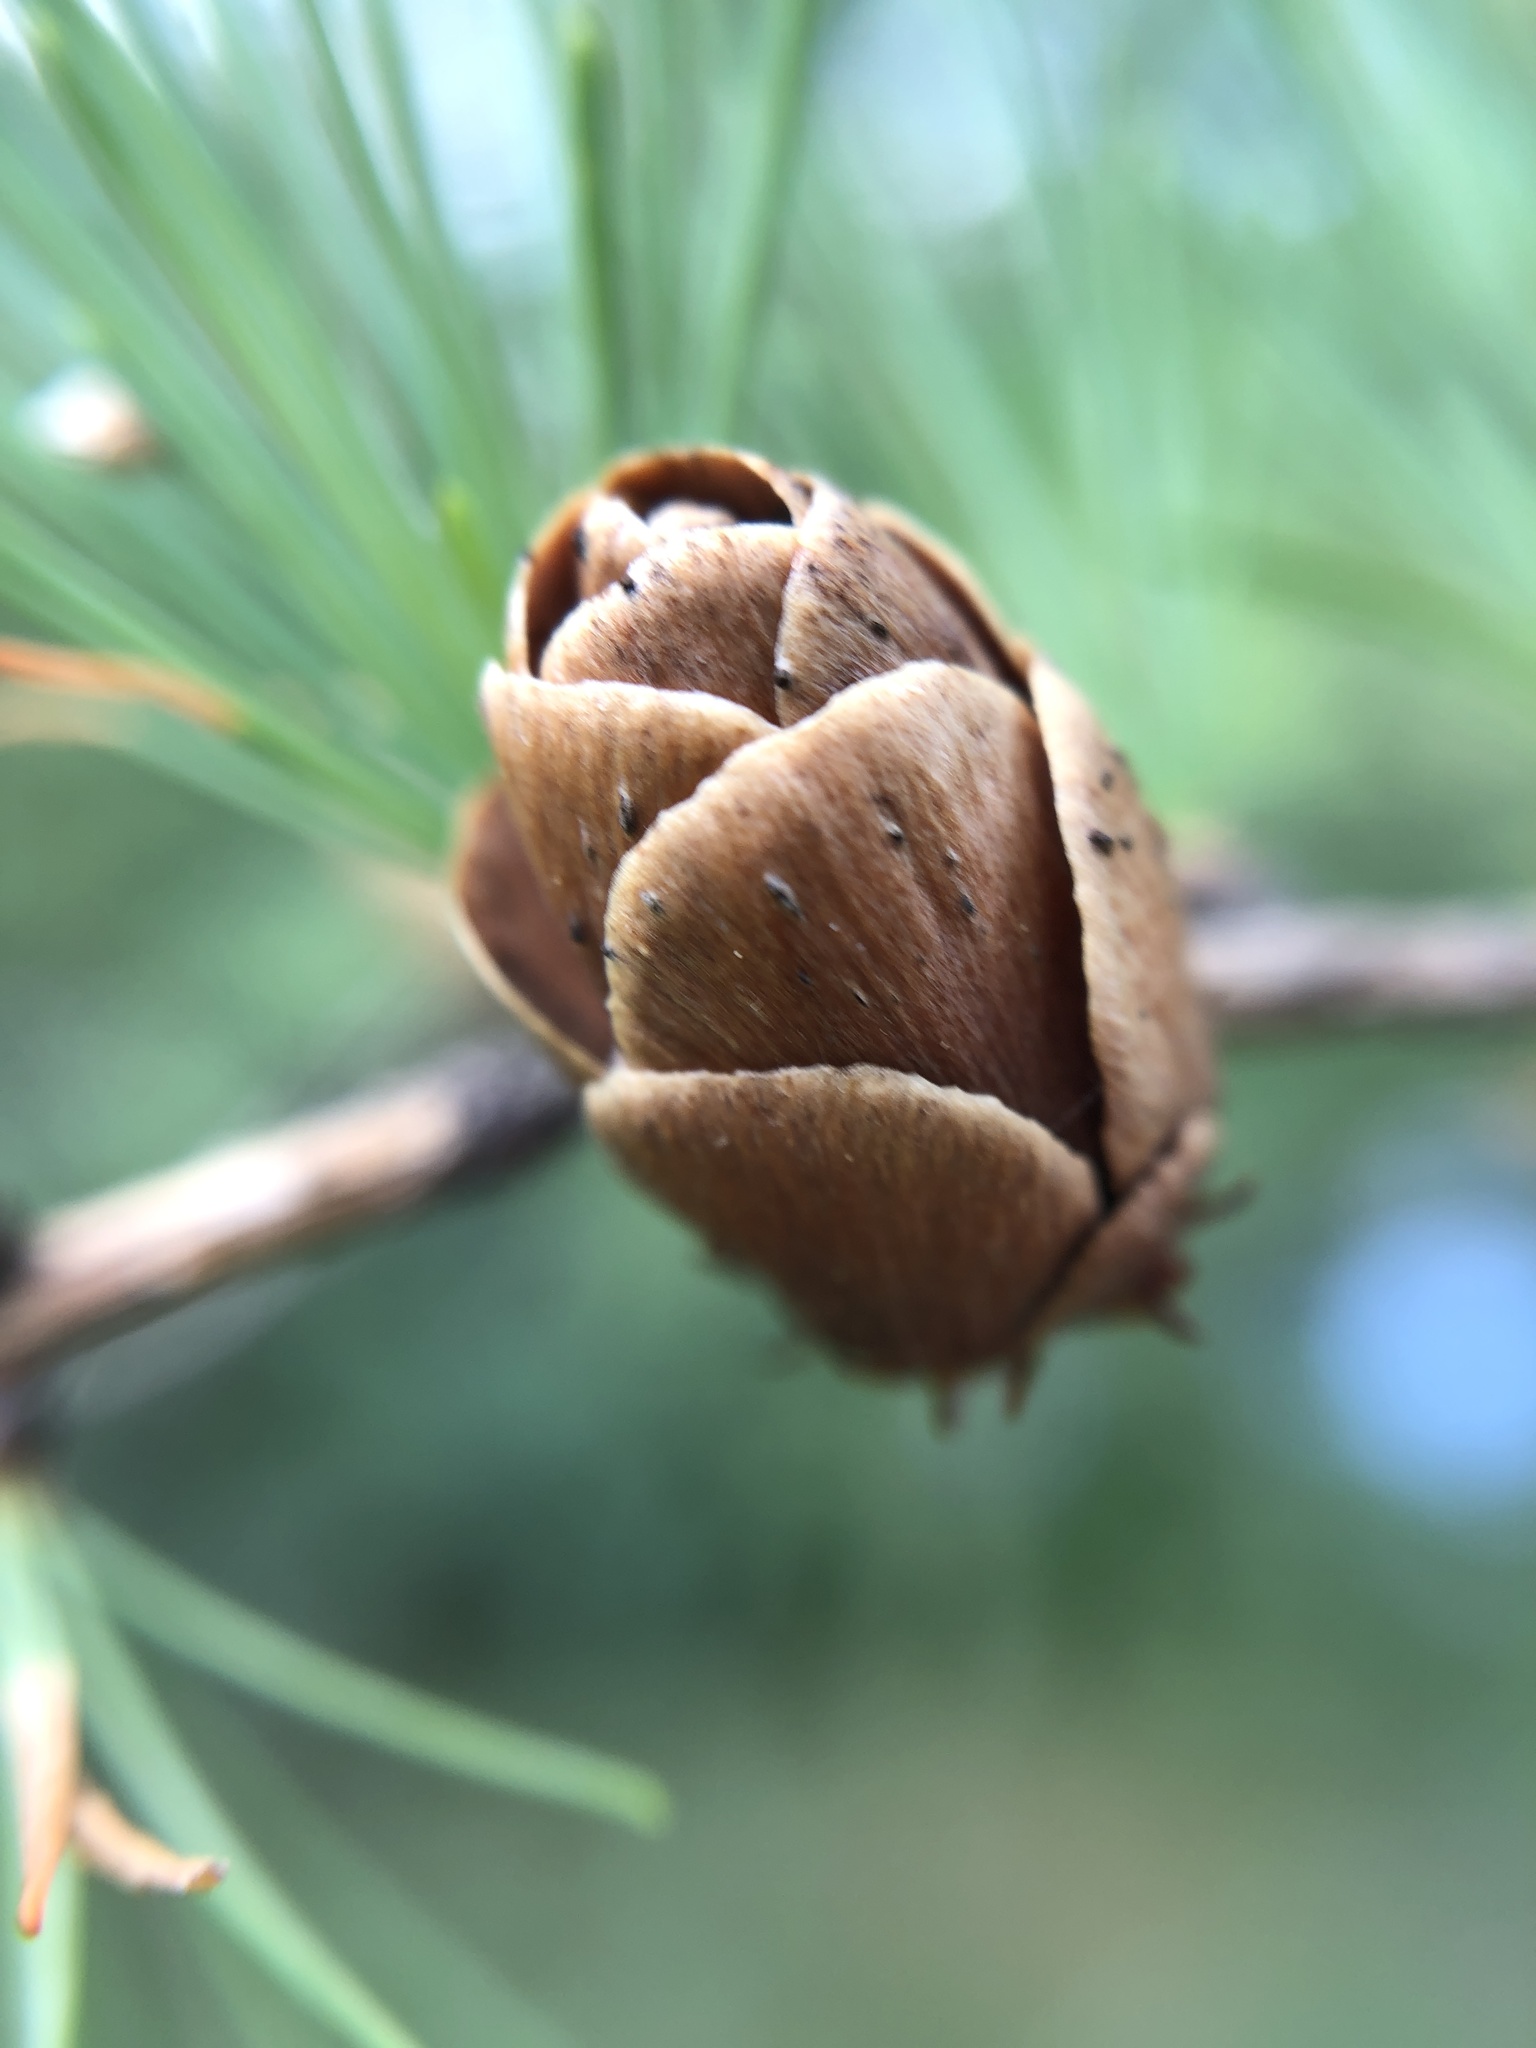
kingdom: Plantae
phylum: Tracheophyta
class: Pinopsida
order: Pinales
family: Pinaceae
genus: Larix
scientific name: Larix laricina
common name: American larch
